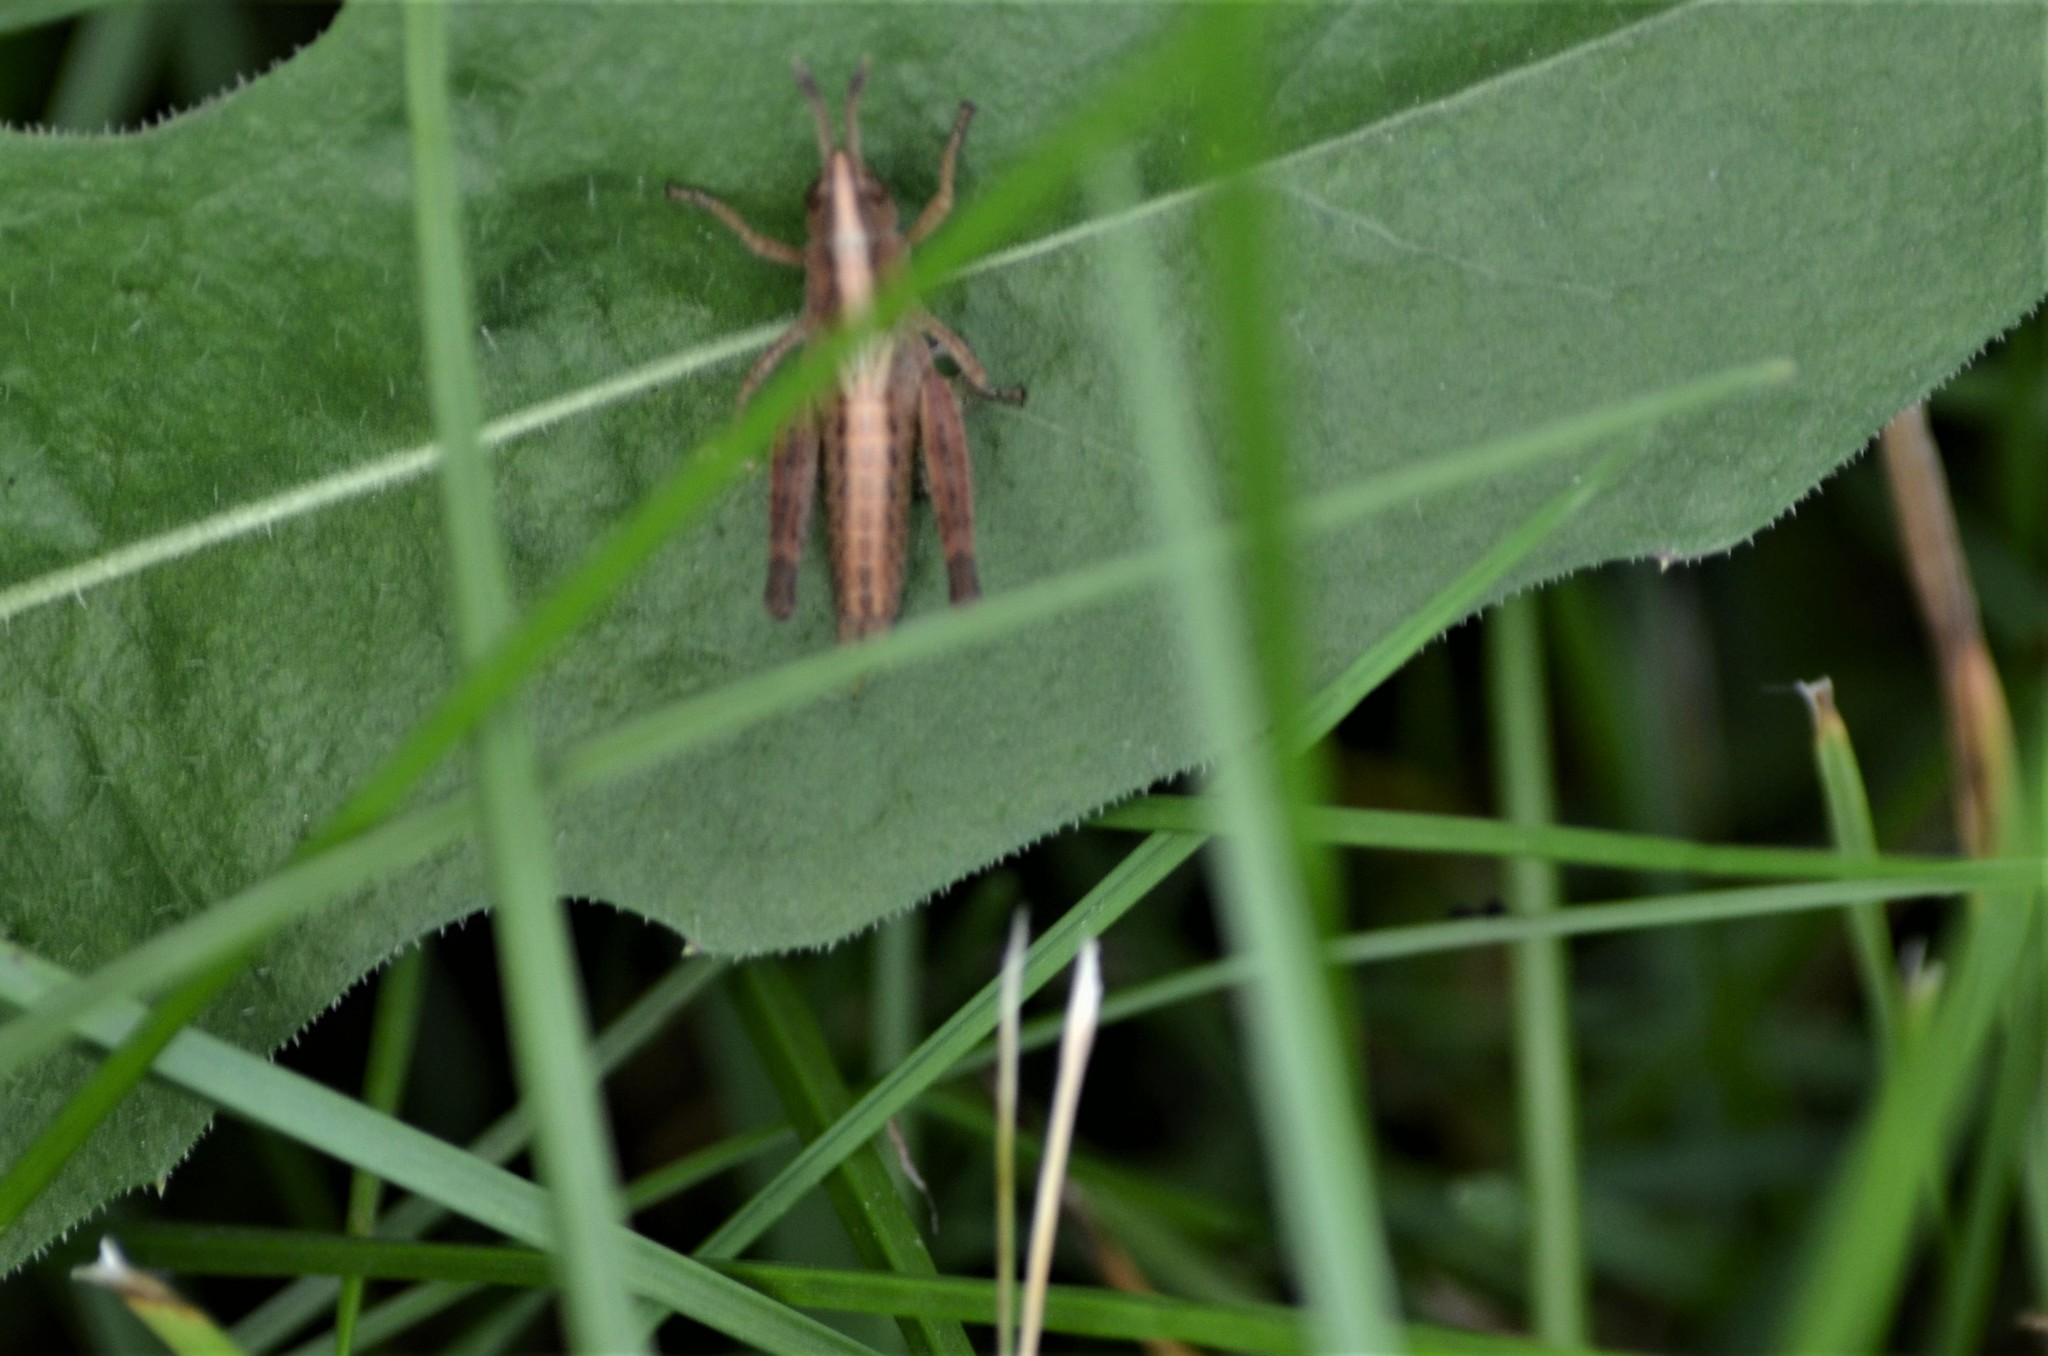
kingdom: Animalia
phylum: Arthropoda
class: Insecta
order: Orthoptera
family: Acrididae
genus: Gomphocerippus
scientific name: Gomphocerippus rufus
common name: Rufous grasshopper
